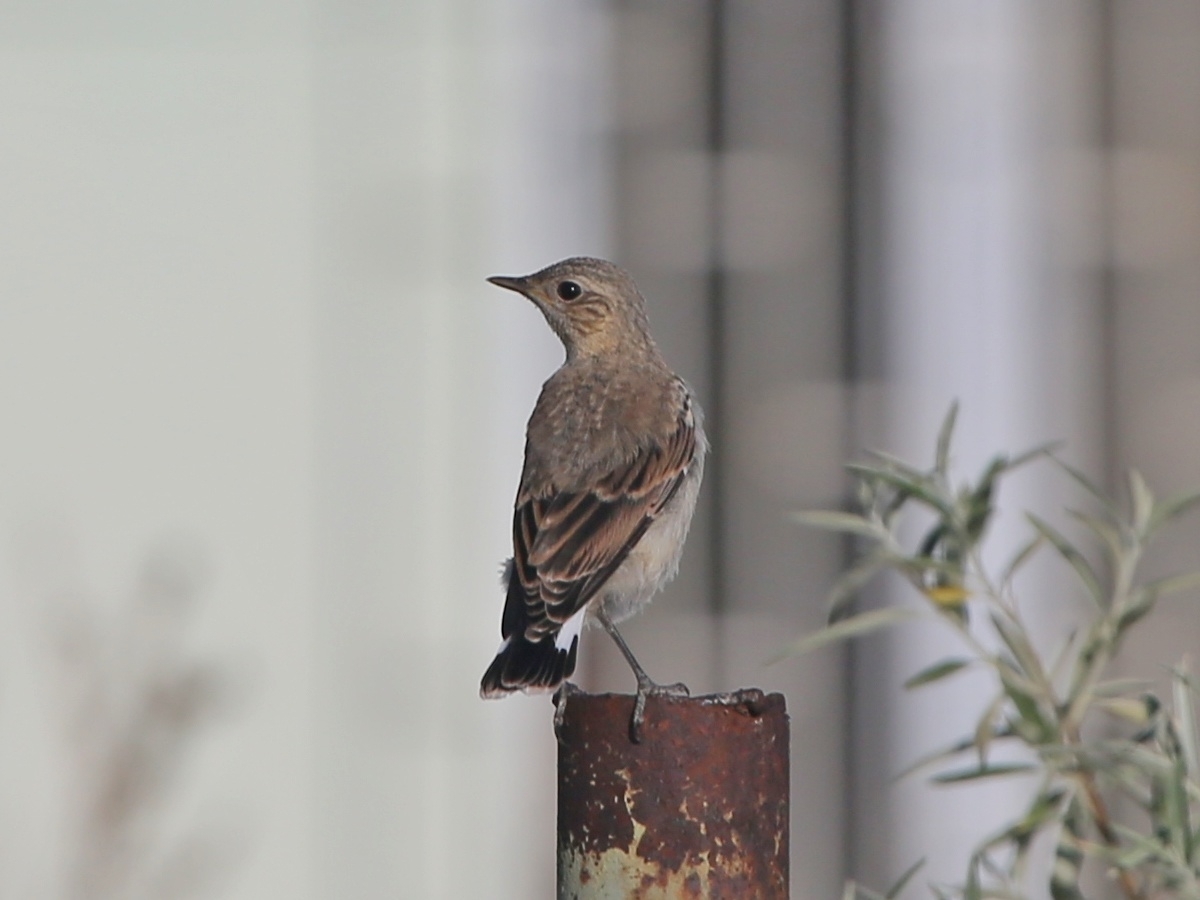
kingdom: Animalia
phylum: Chordata
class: Aves
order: Passeriformes
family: Muscicapidae
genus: Oenanthe
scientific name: Oenanthe oenanthe
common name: Northern wheatear
